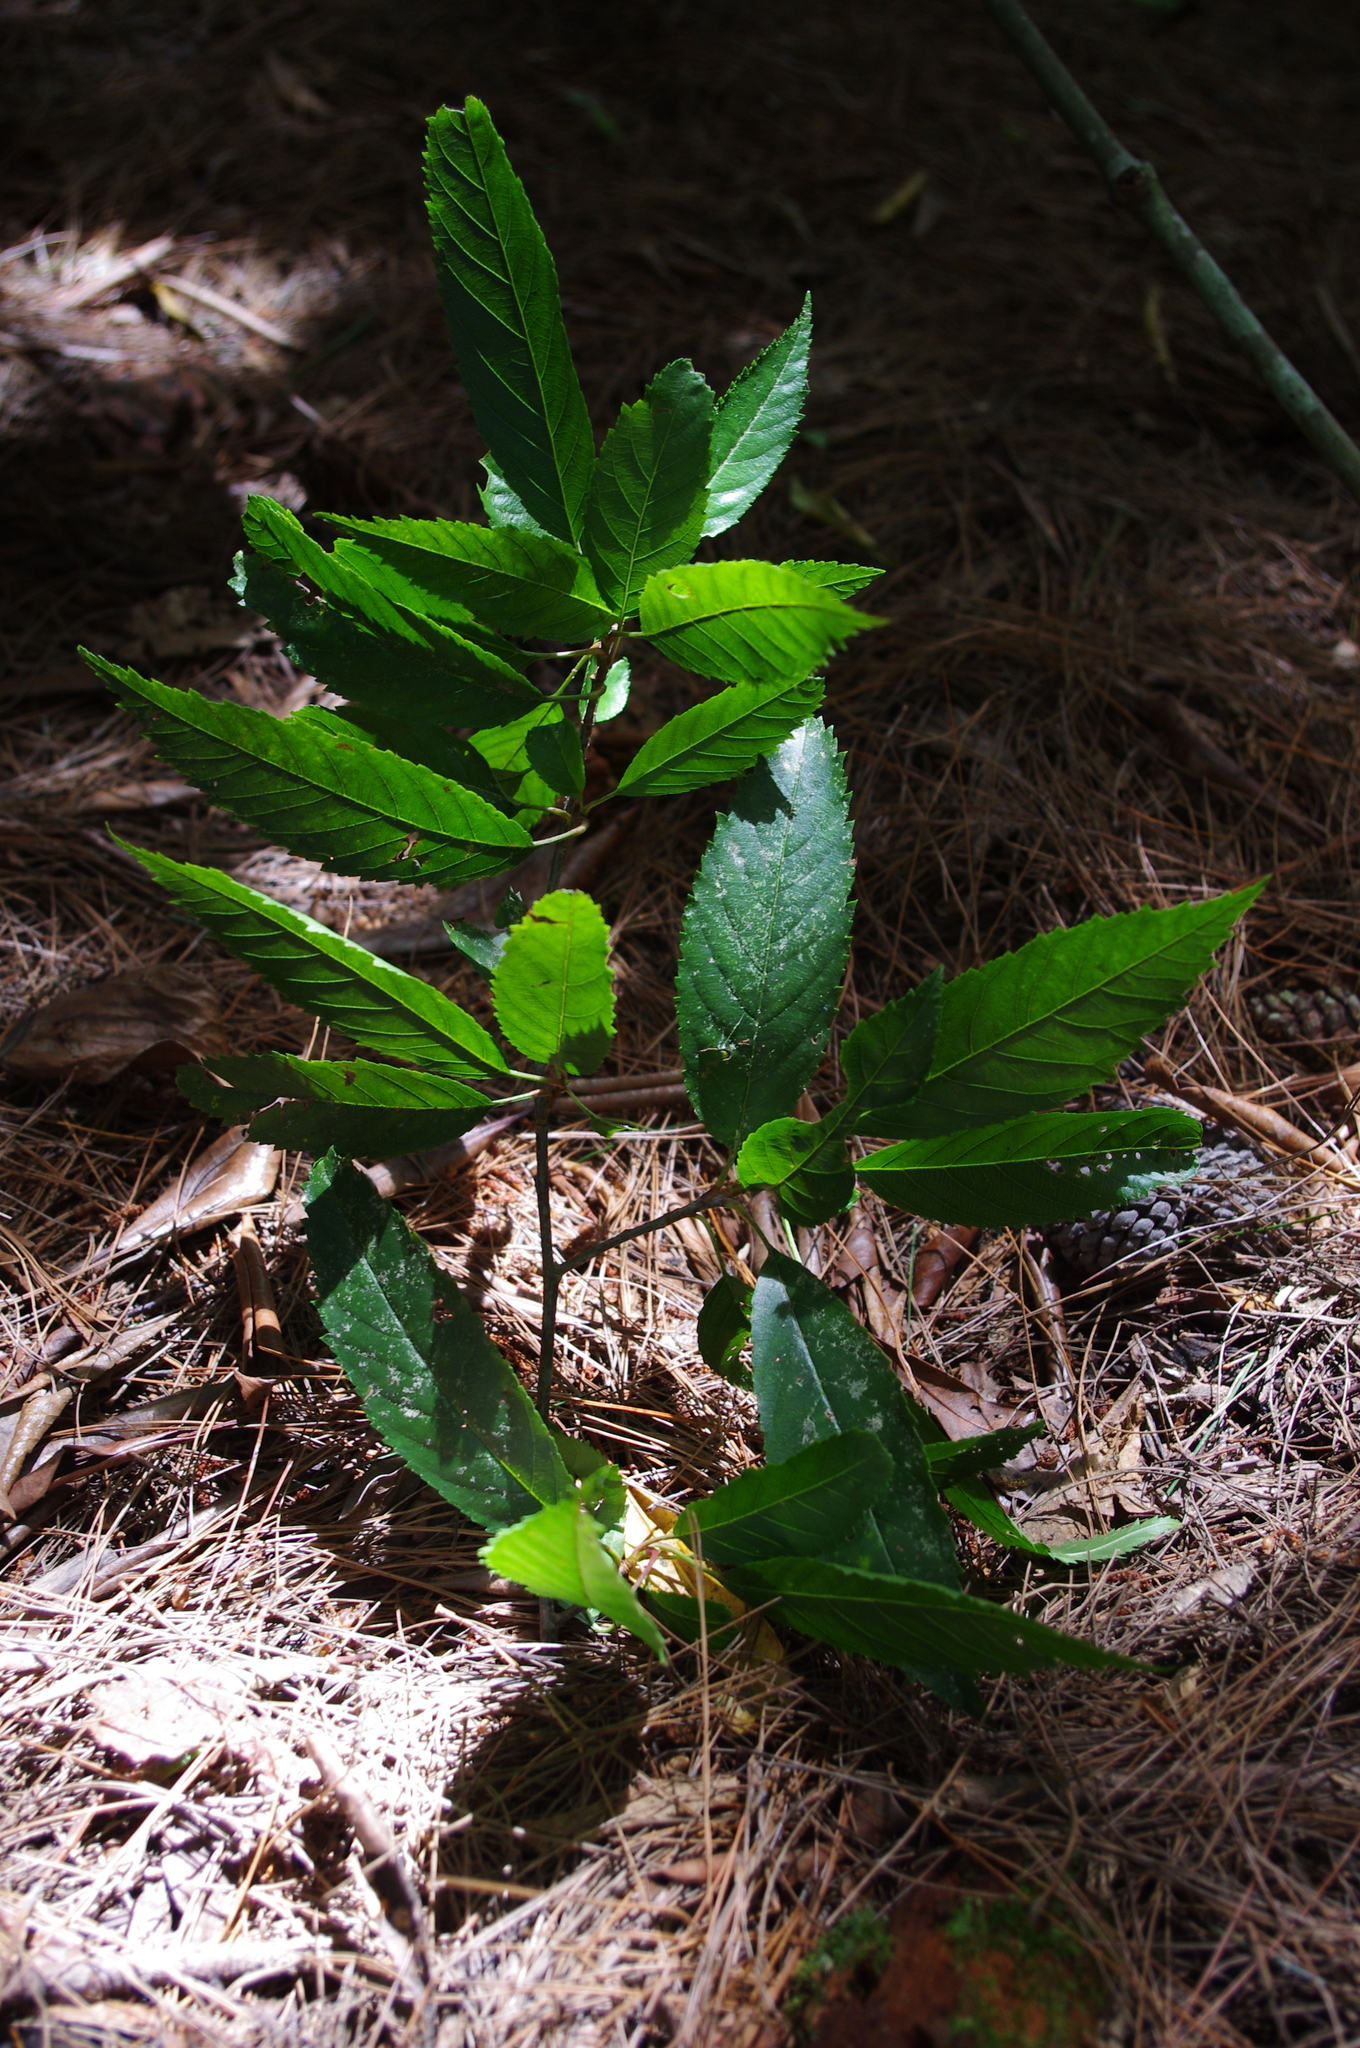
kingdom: Plantae
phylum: Tracheophyta
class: Magnoliopsida
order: Rosales
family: Rosaceae
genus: Malus
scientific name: Malus doumeri
